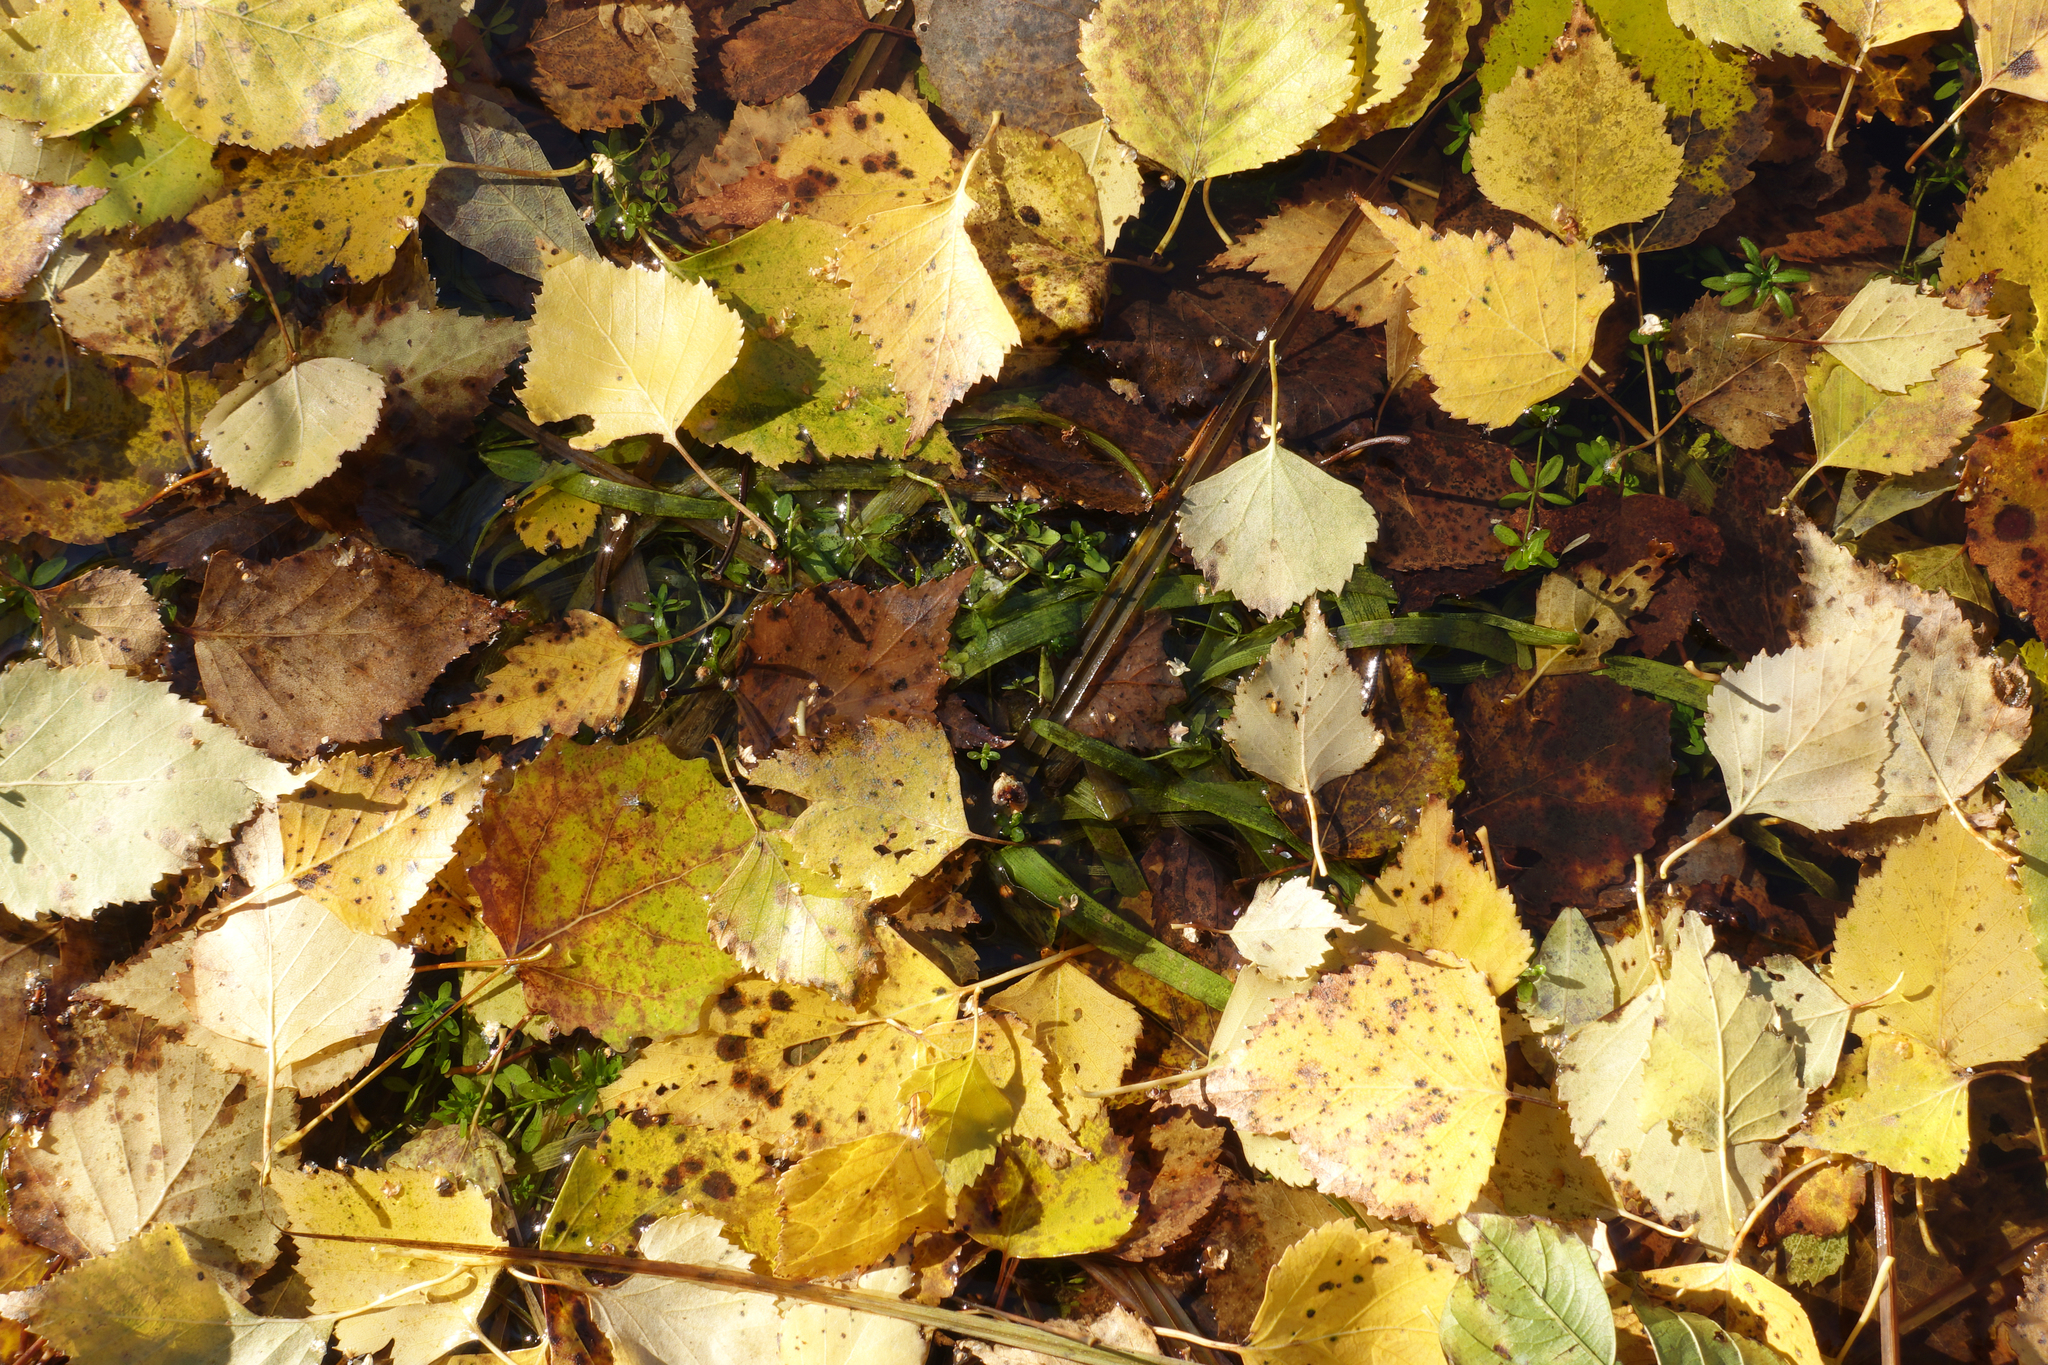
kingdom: Plantae
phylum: Tracheophyta
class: Liliopsida
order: Poales
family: Typhaceae
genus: Sparganium
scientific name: Sparganium natans
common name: Least bur-reed
